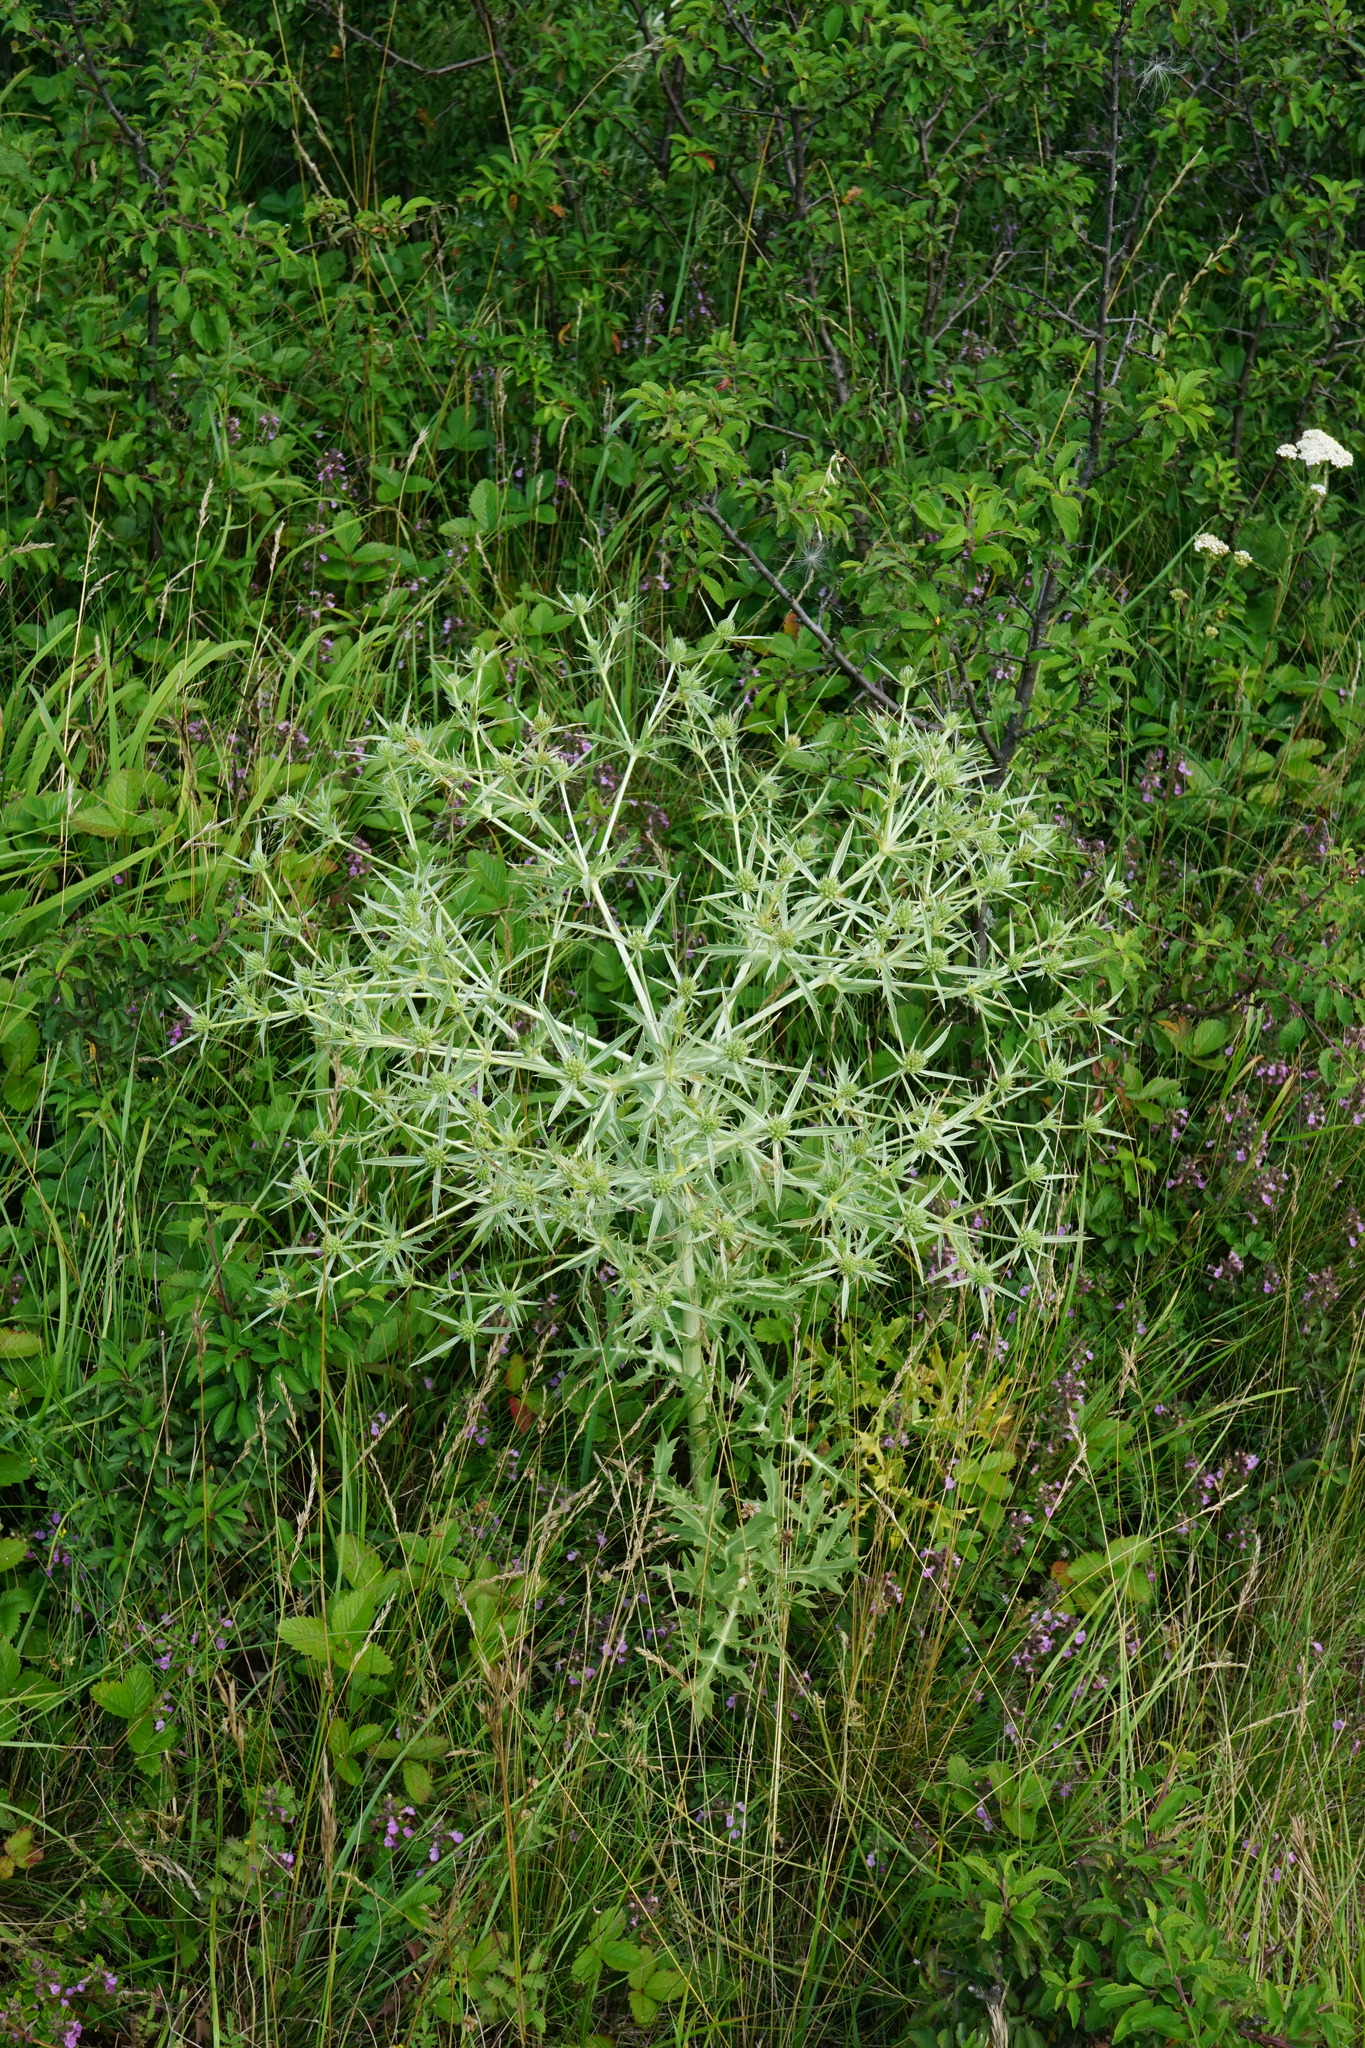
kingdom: Plantae
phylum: Tracheophyta
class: Magnoliopsida
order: Apiales
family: Apiaceae
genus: Eryngium
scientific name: Eryngium campestre
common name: Field eryngo
